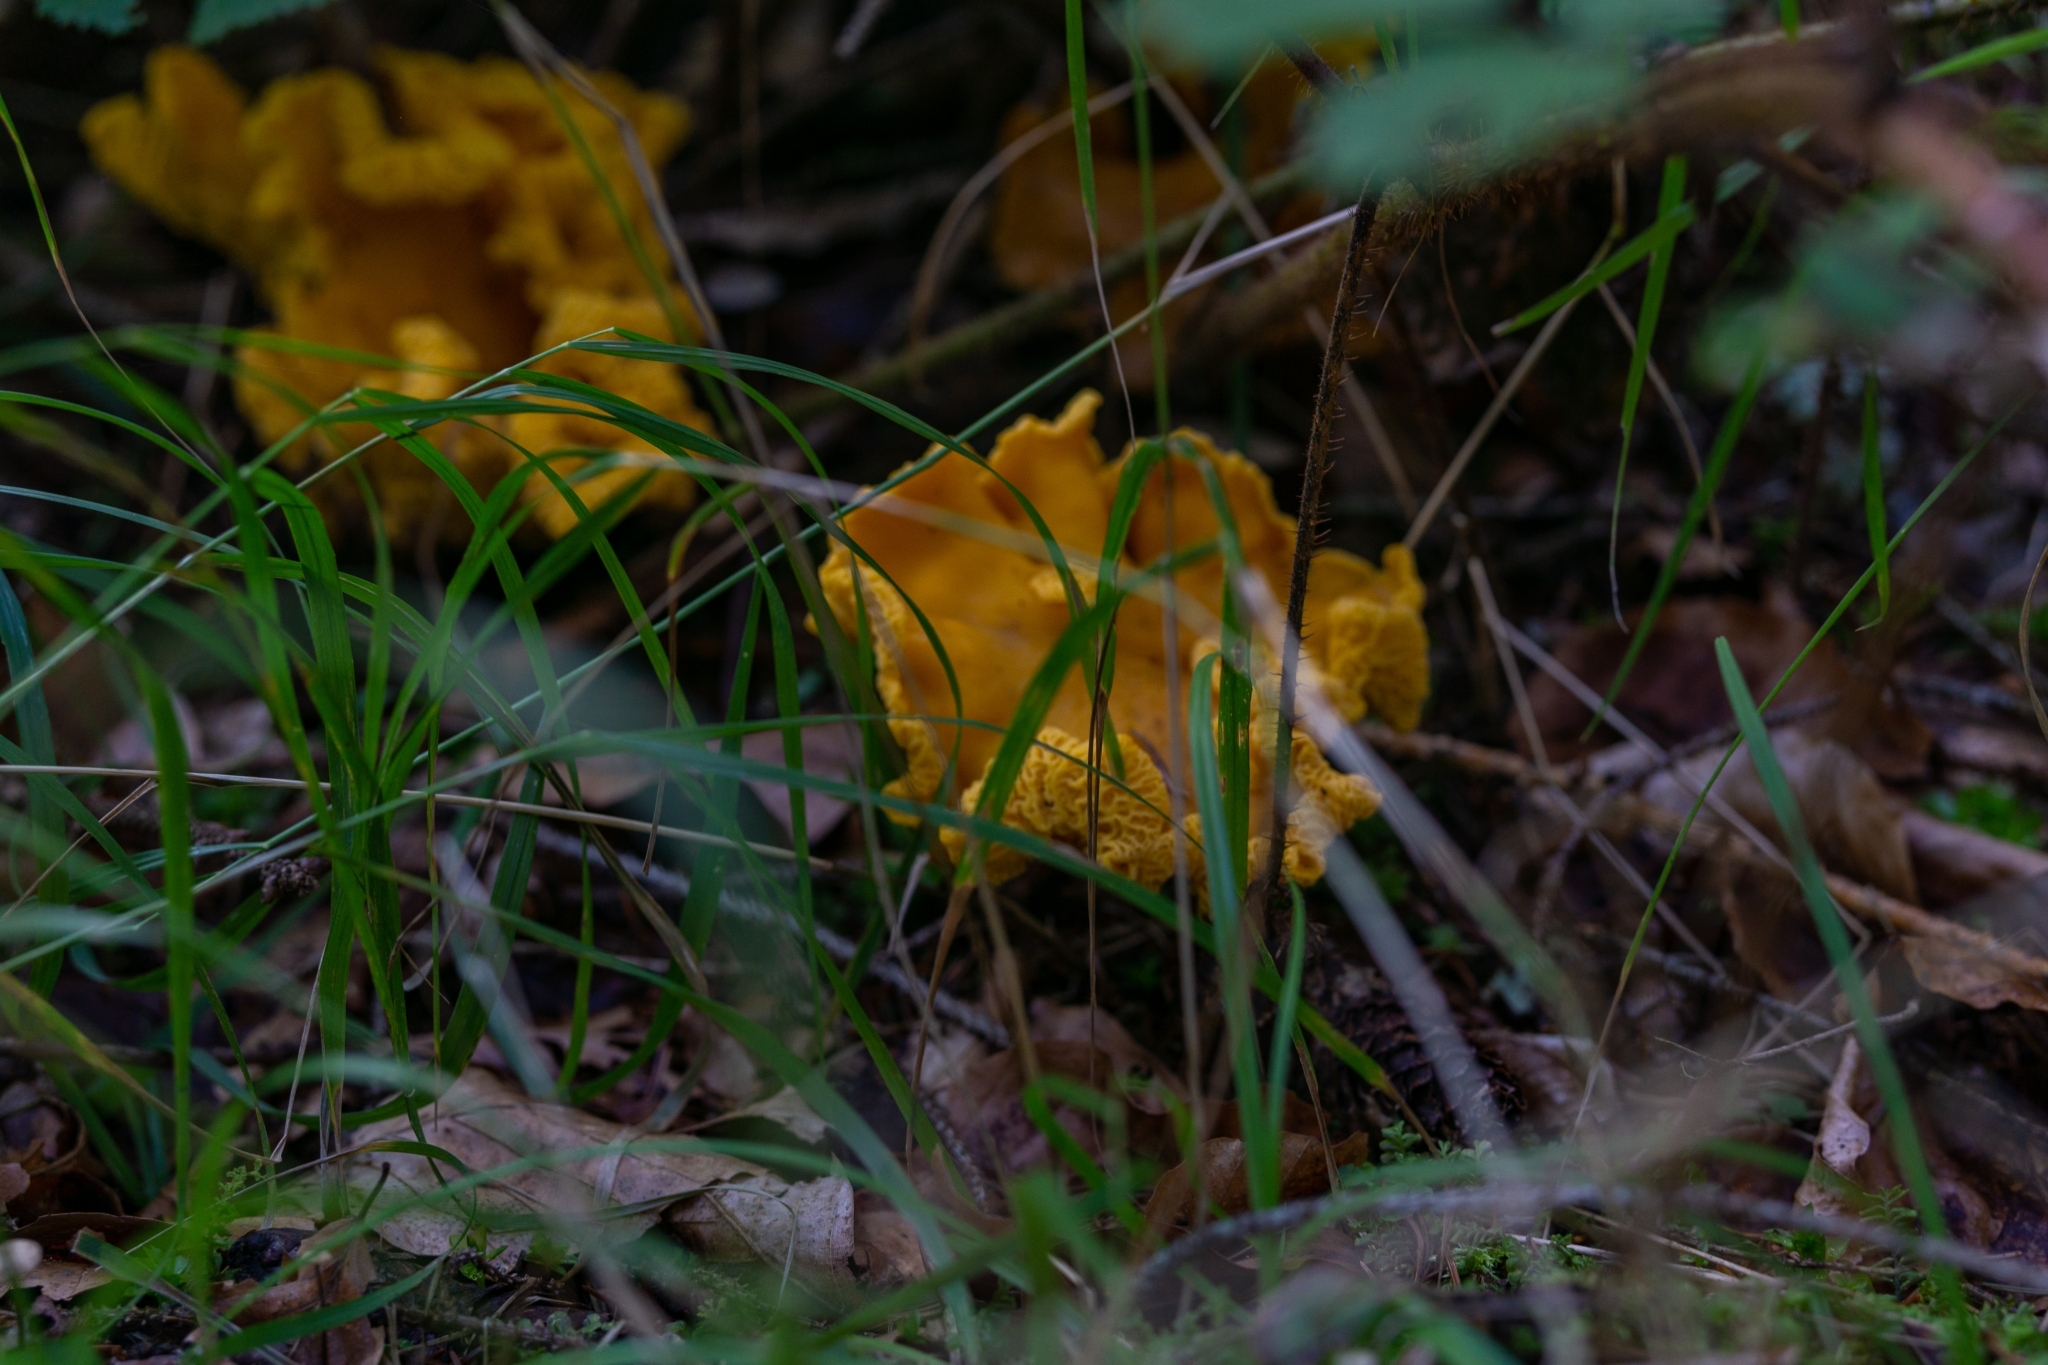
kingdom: Fungi
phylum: Basidiomycota
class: Agaricomycetes
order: Cantharellales
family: Hydnaceae
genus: Cantharellus
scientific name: Cantharellus cibarius
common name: Chanterelle
